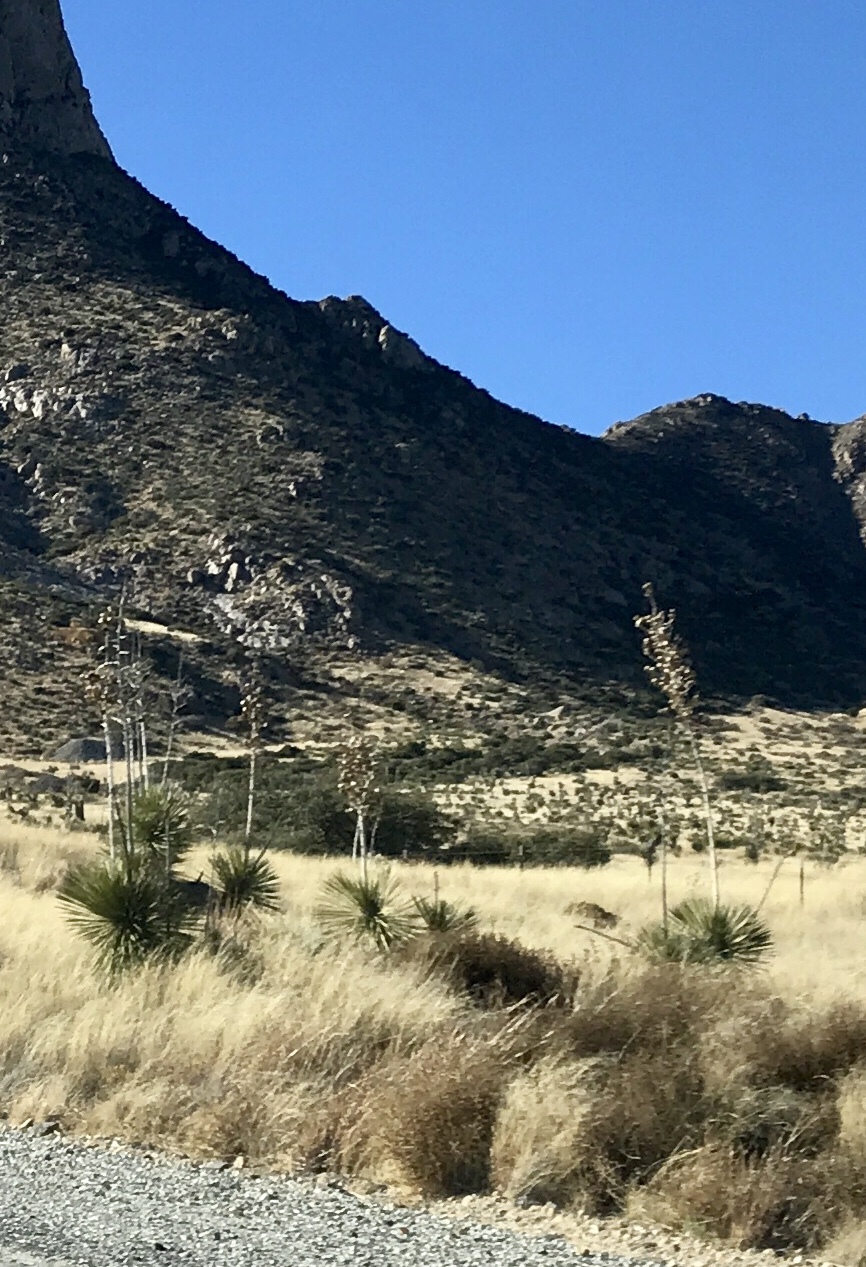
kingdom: Plantae
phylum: Tracheophyta
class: Liliopsida
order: Asparagales
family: Asparagaceae
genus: Yucca
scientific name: Yucca elata
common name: Palmella
